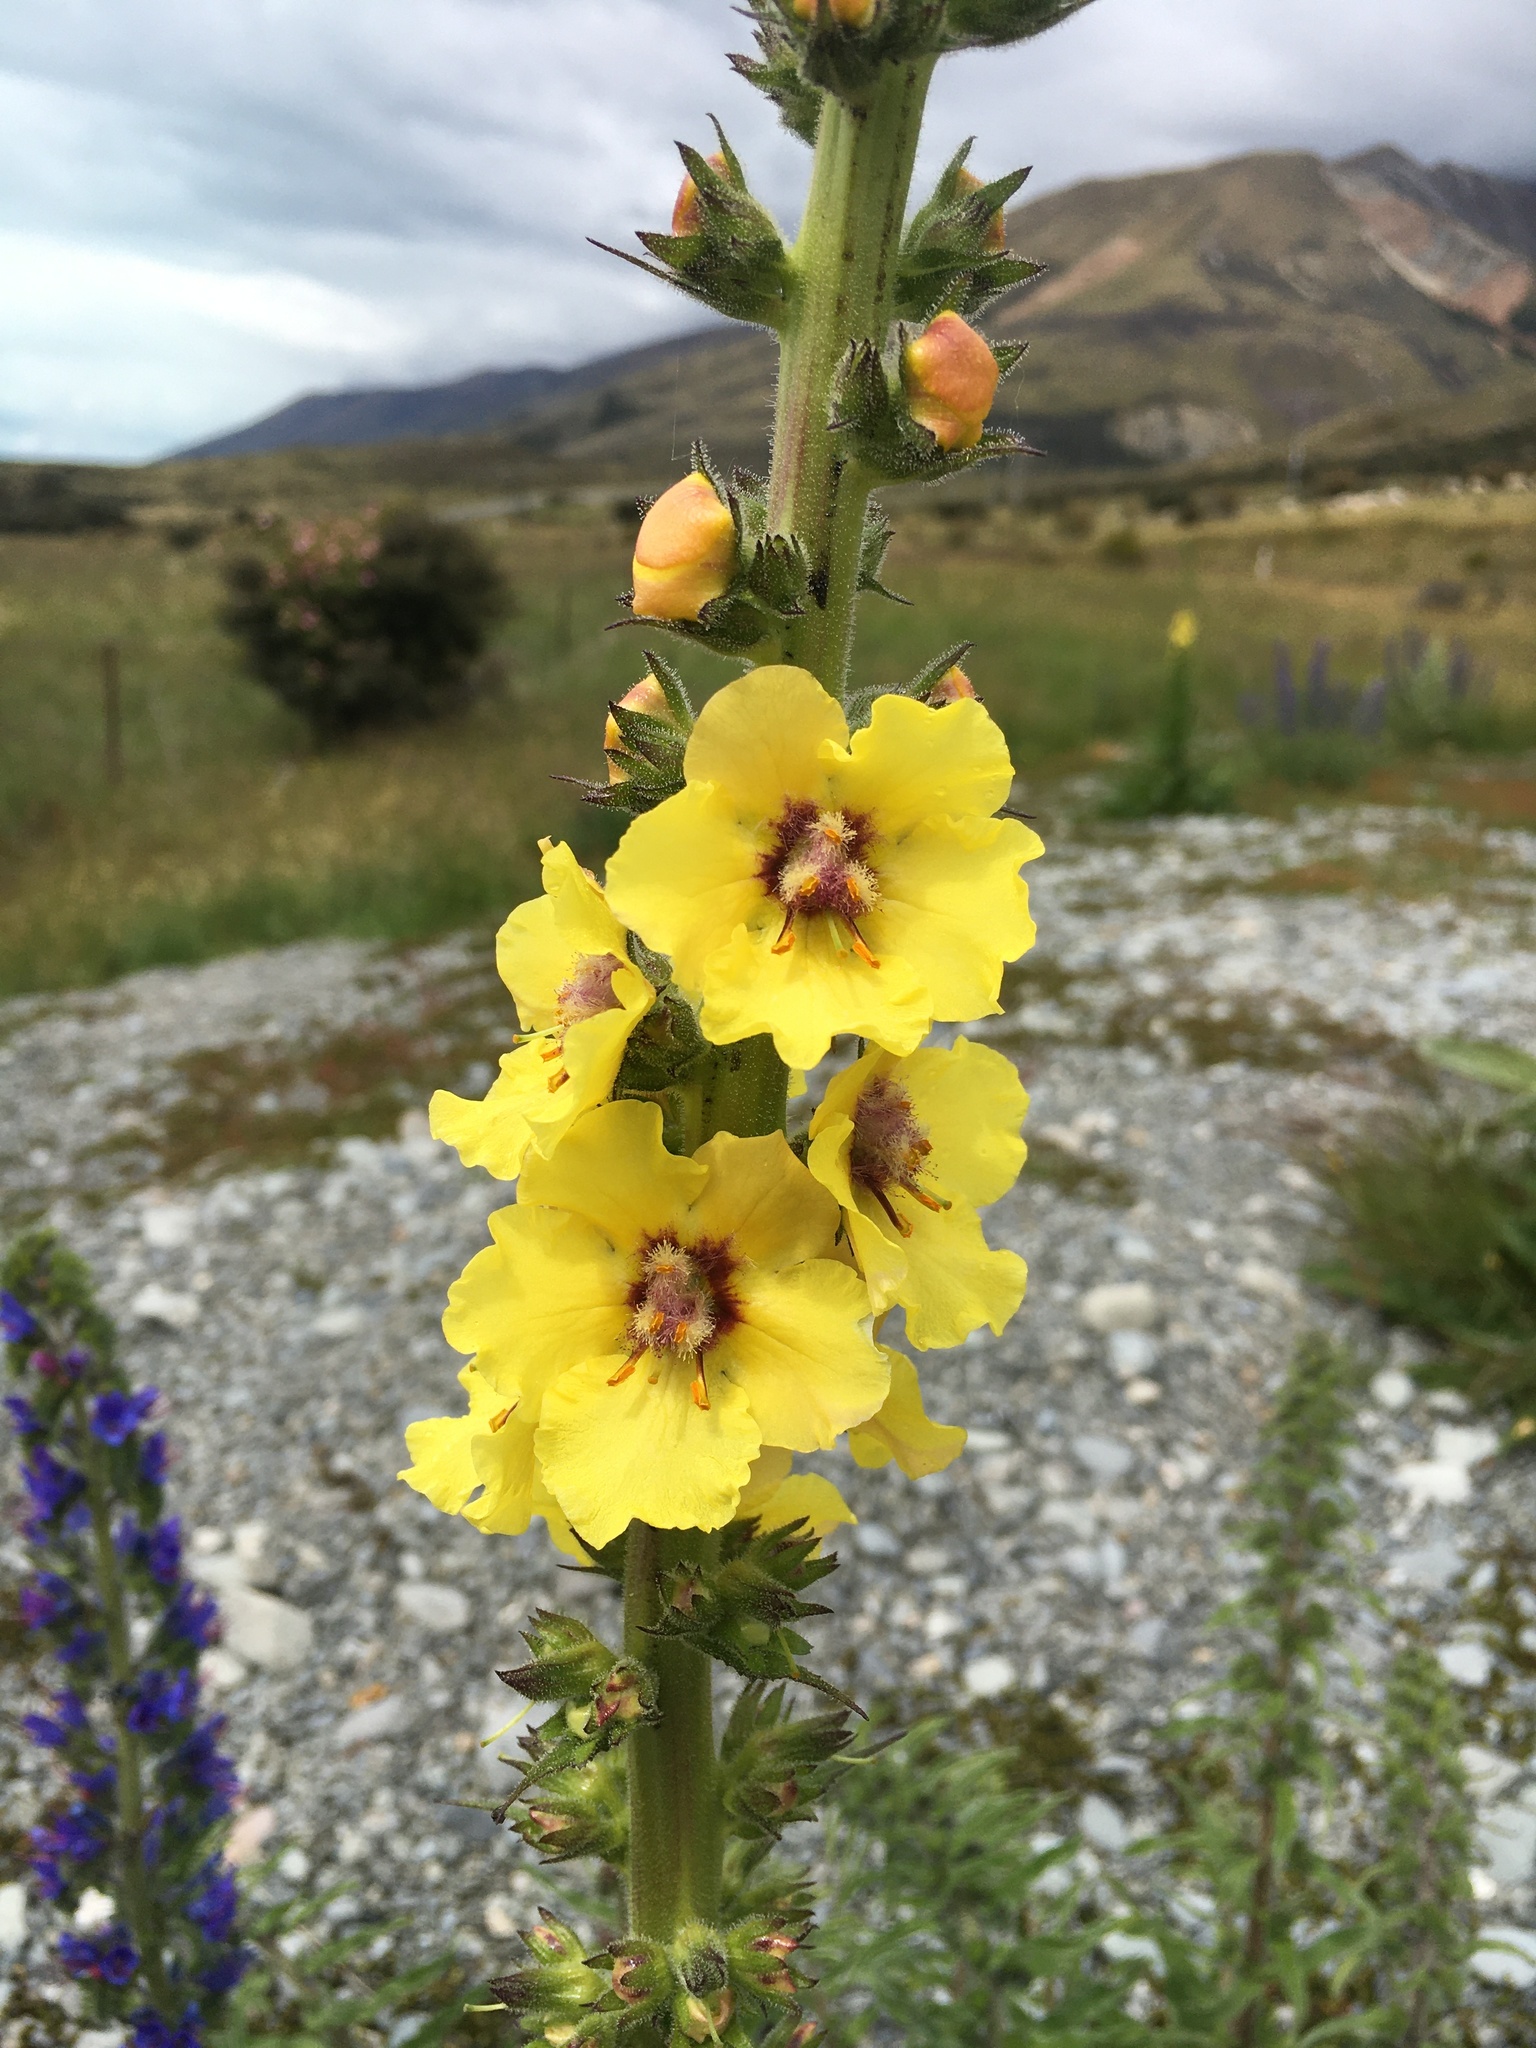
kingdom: Plantae
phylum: Tracheophyta
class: Magnoliopsida
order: Lamiales
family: Scrophulariaceae
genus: Verbascum
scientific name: Verbascum virgatum
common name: Twiggy mullein
